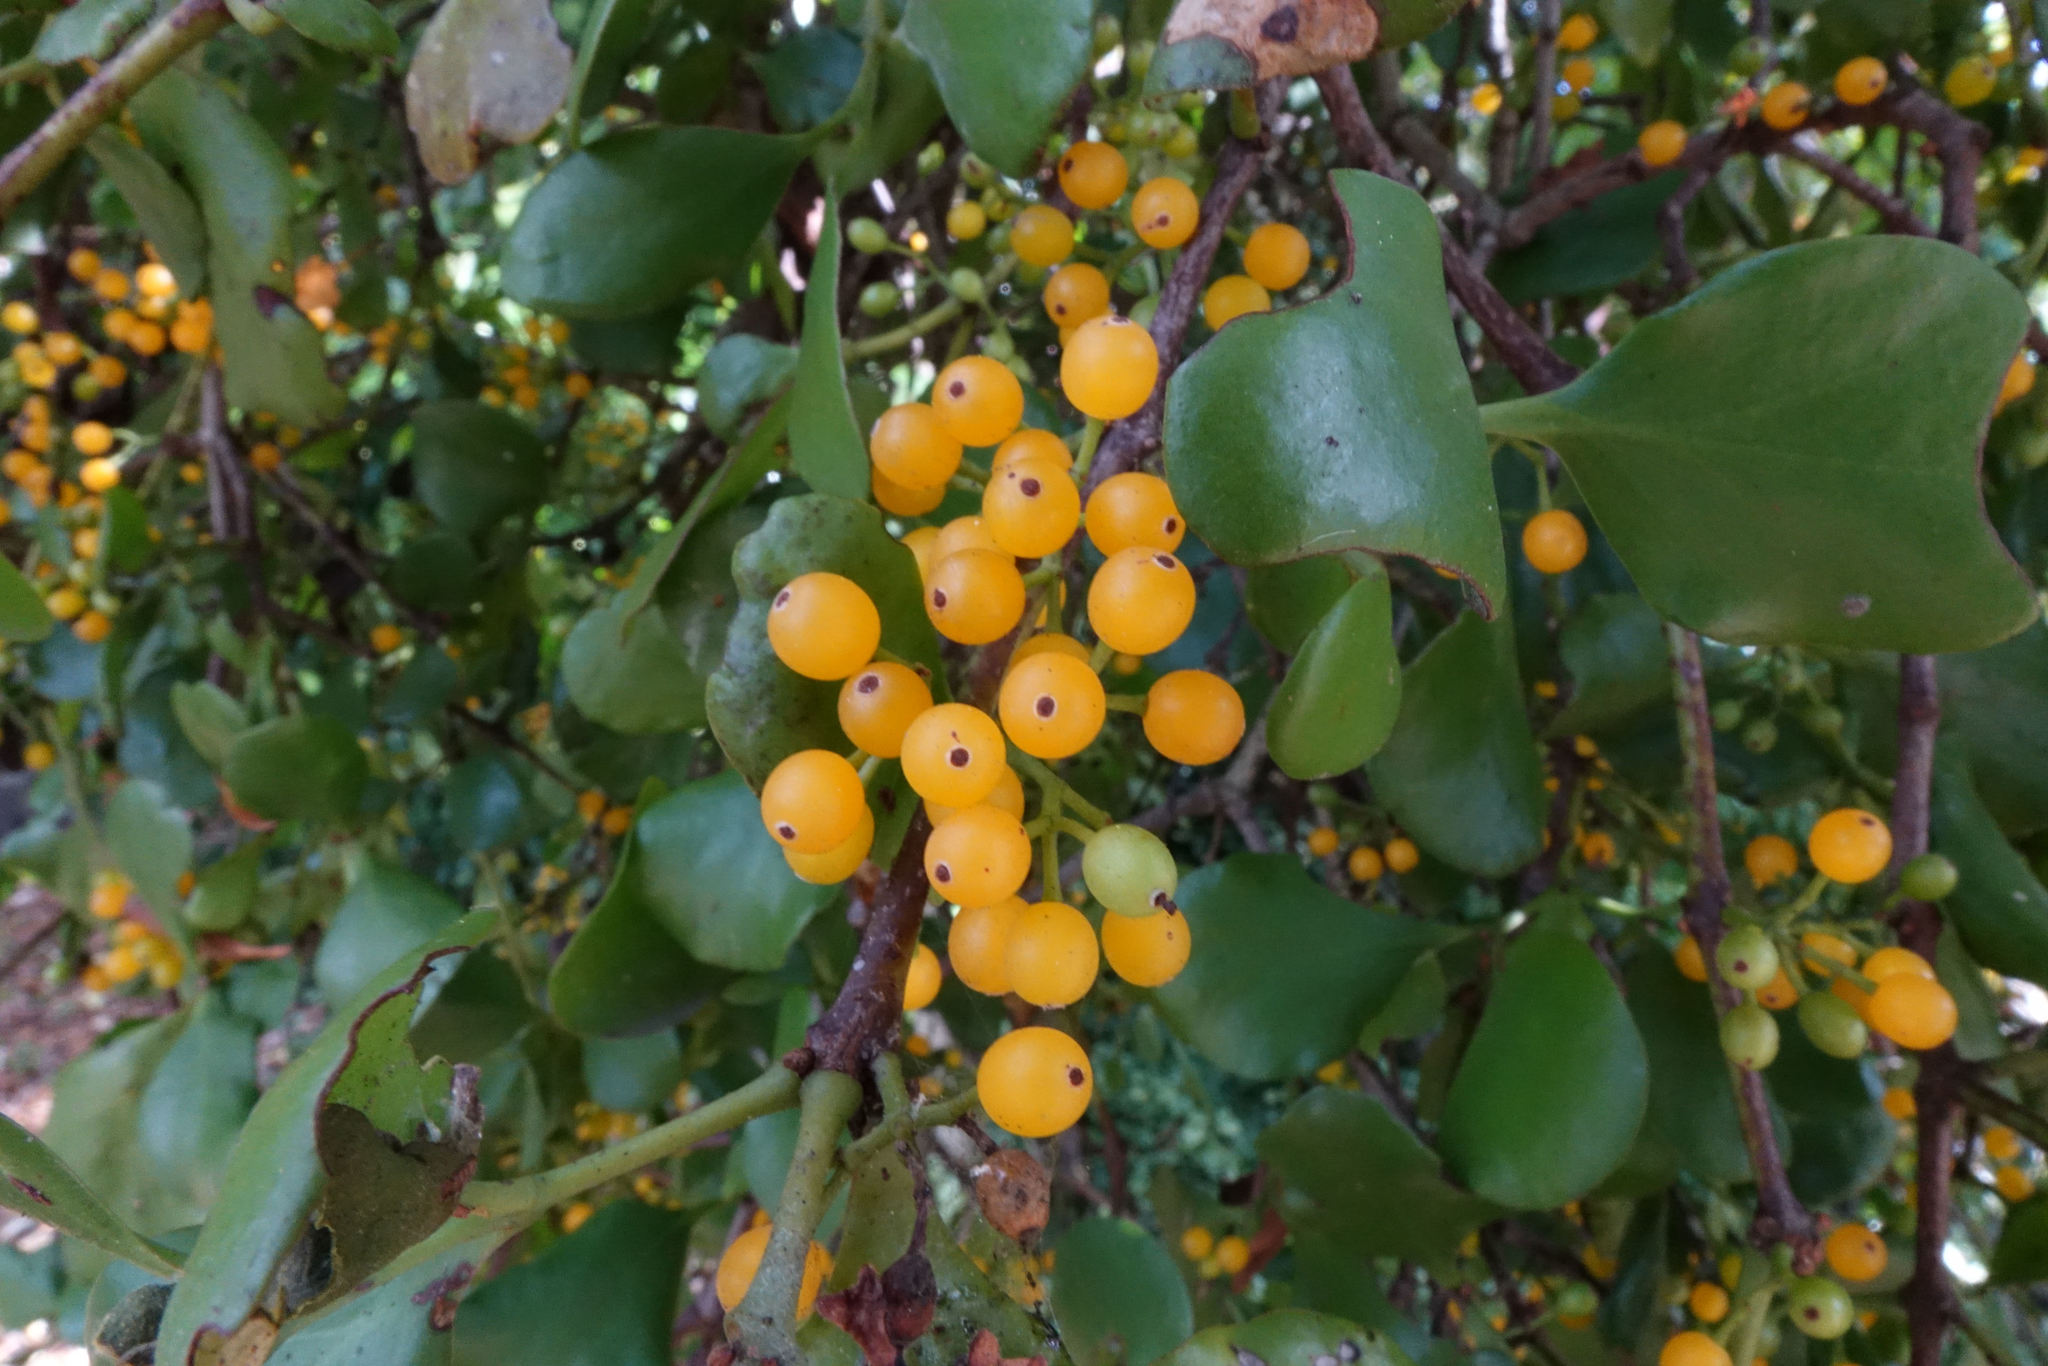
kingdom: Plantae
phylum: Tracheophyta
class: Magnoliopsida
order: Santalales
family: Loranthaceae
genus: Ileostylus
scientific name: Ileostylus micranthus
